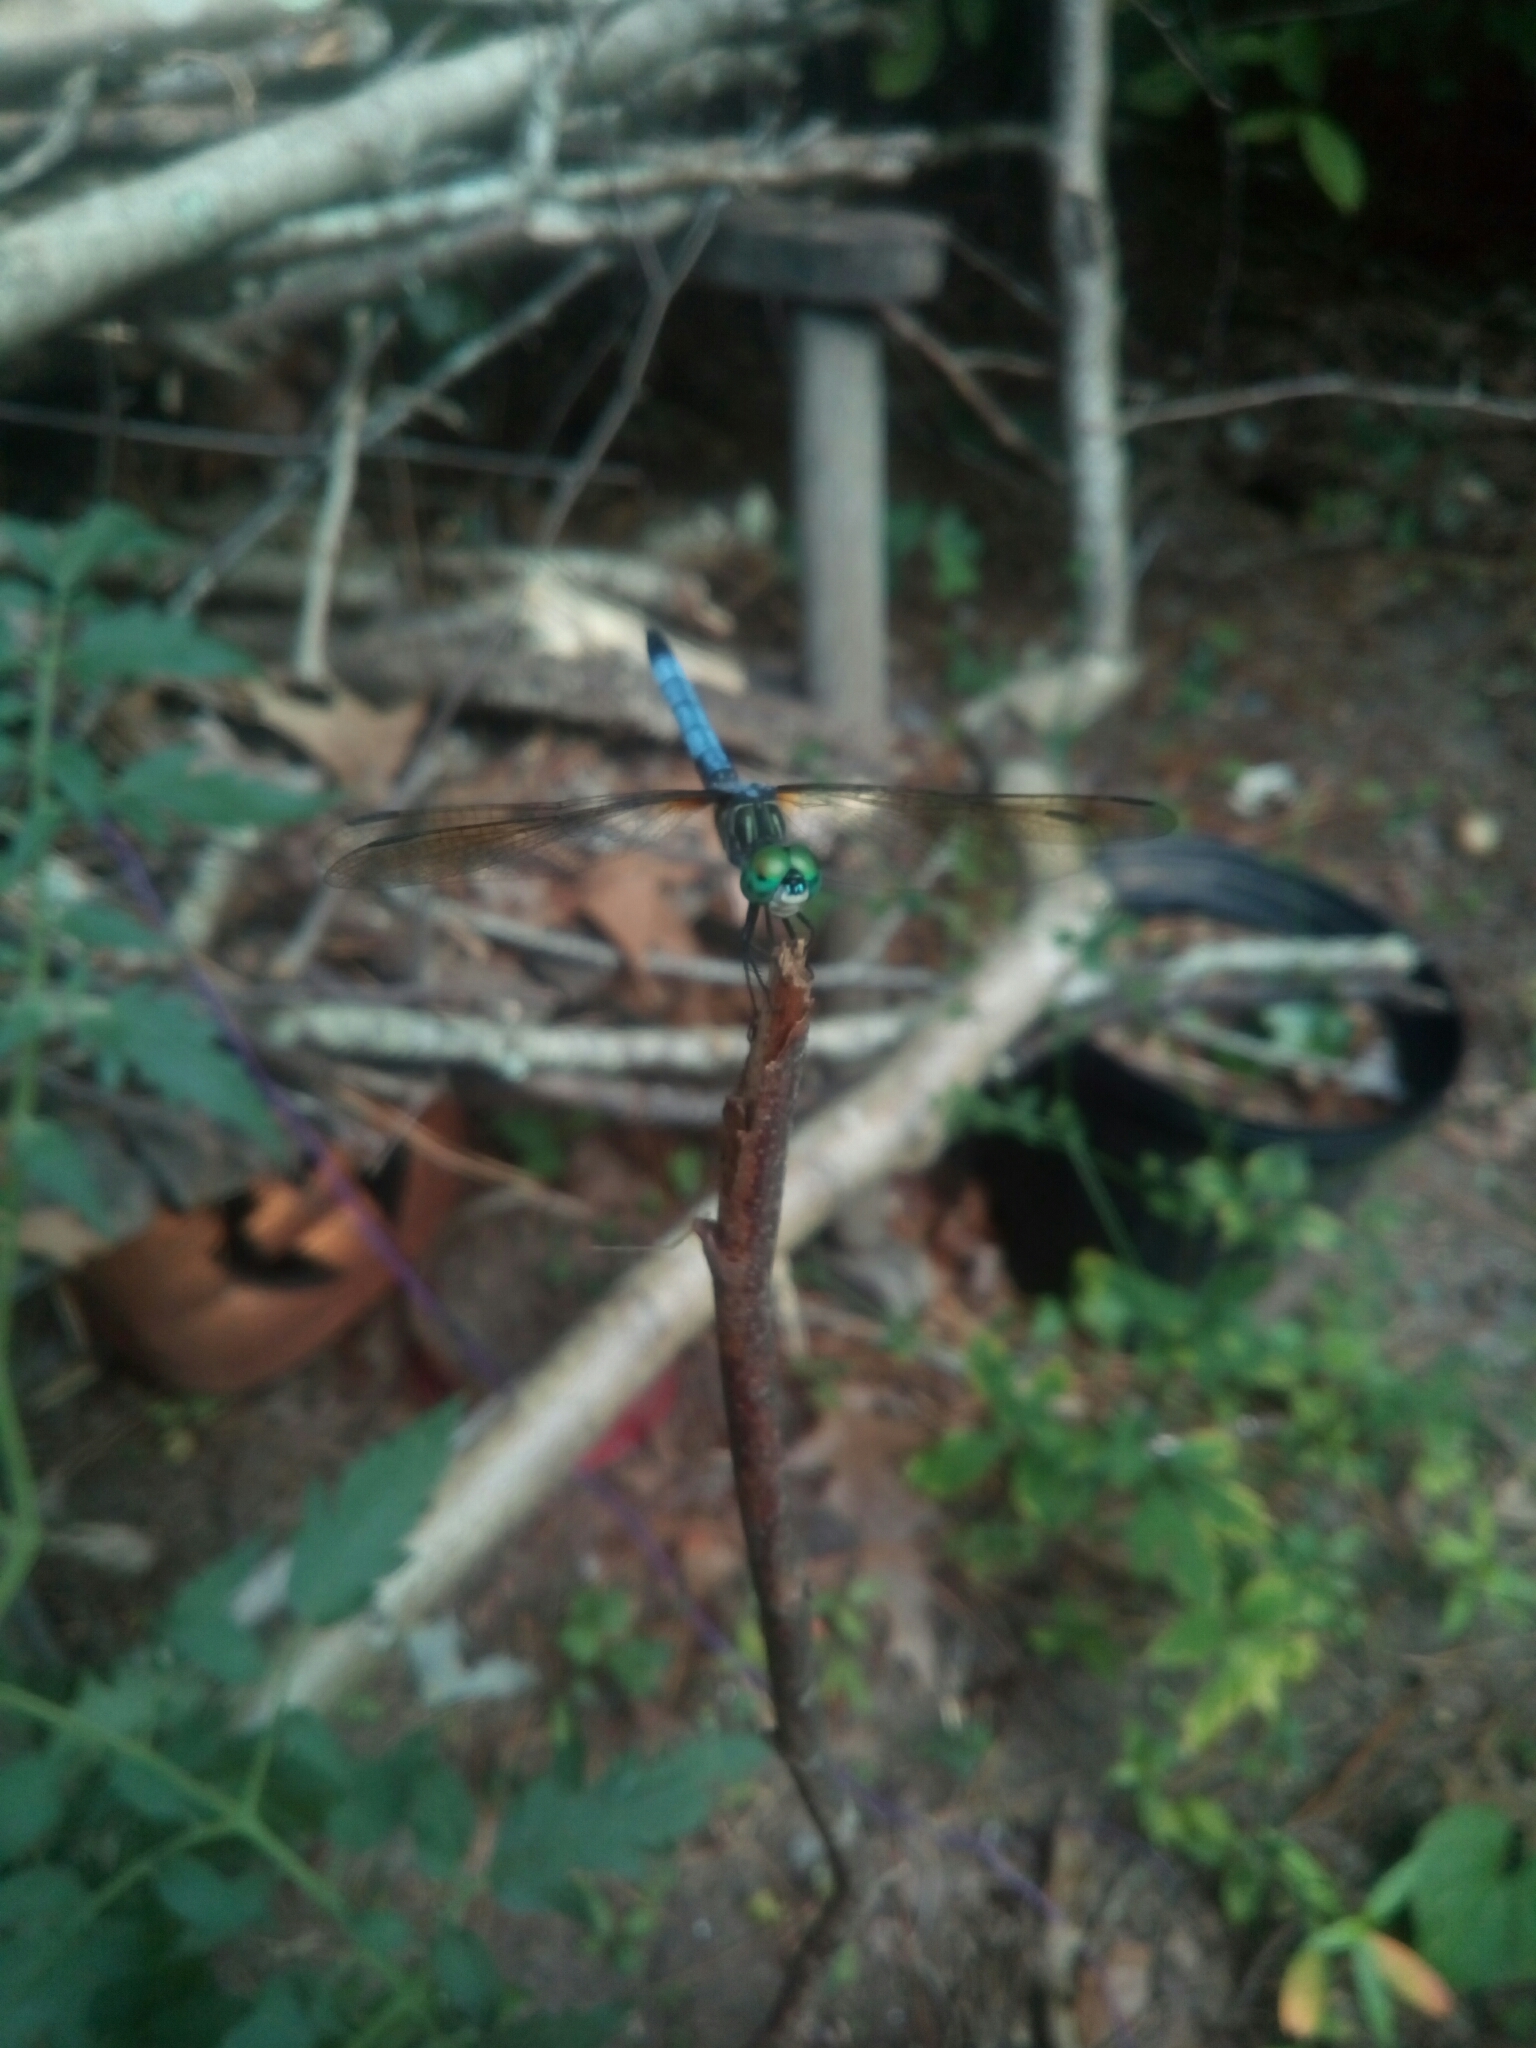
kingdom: Animalia
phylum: Arthropoda
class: Insecta
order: Odonata
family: Libellulidae
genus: Pachydiplax
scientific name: Pachydiplax longipennis
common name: Blue dasher
